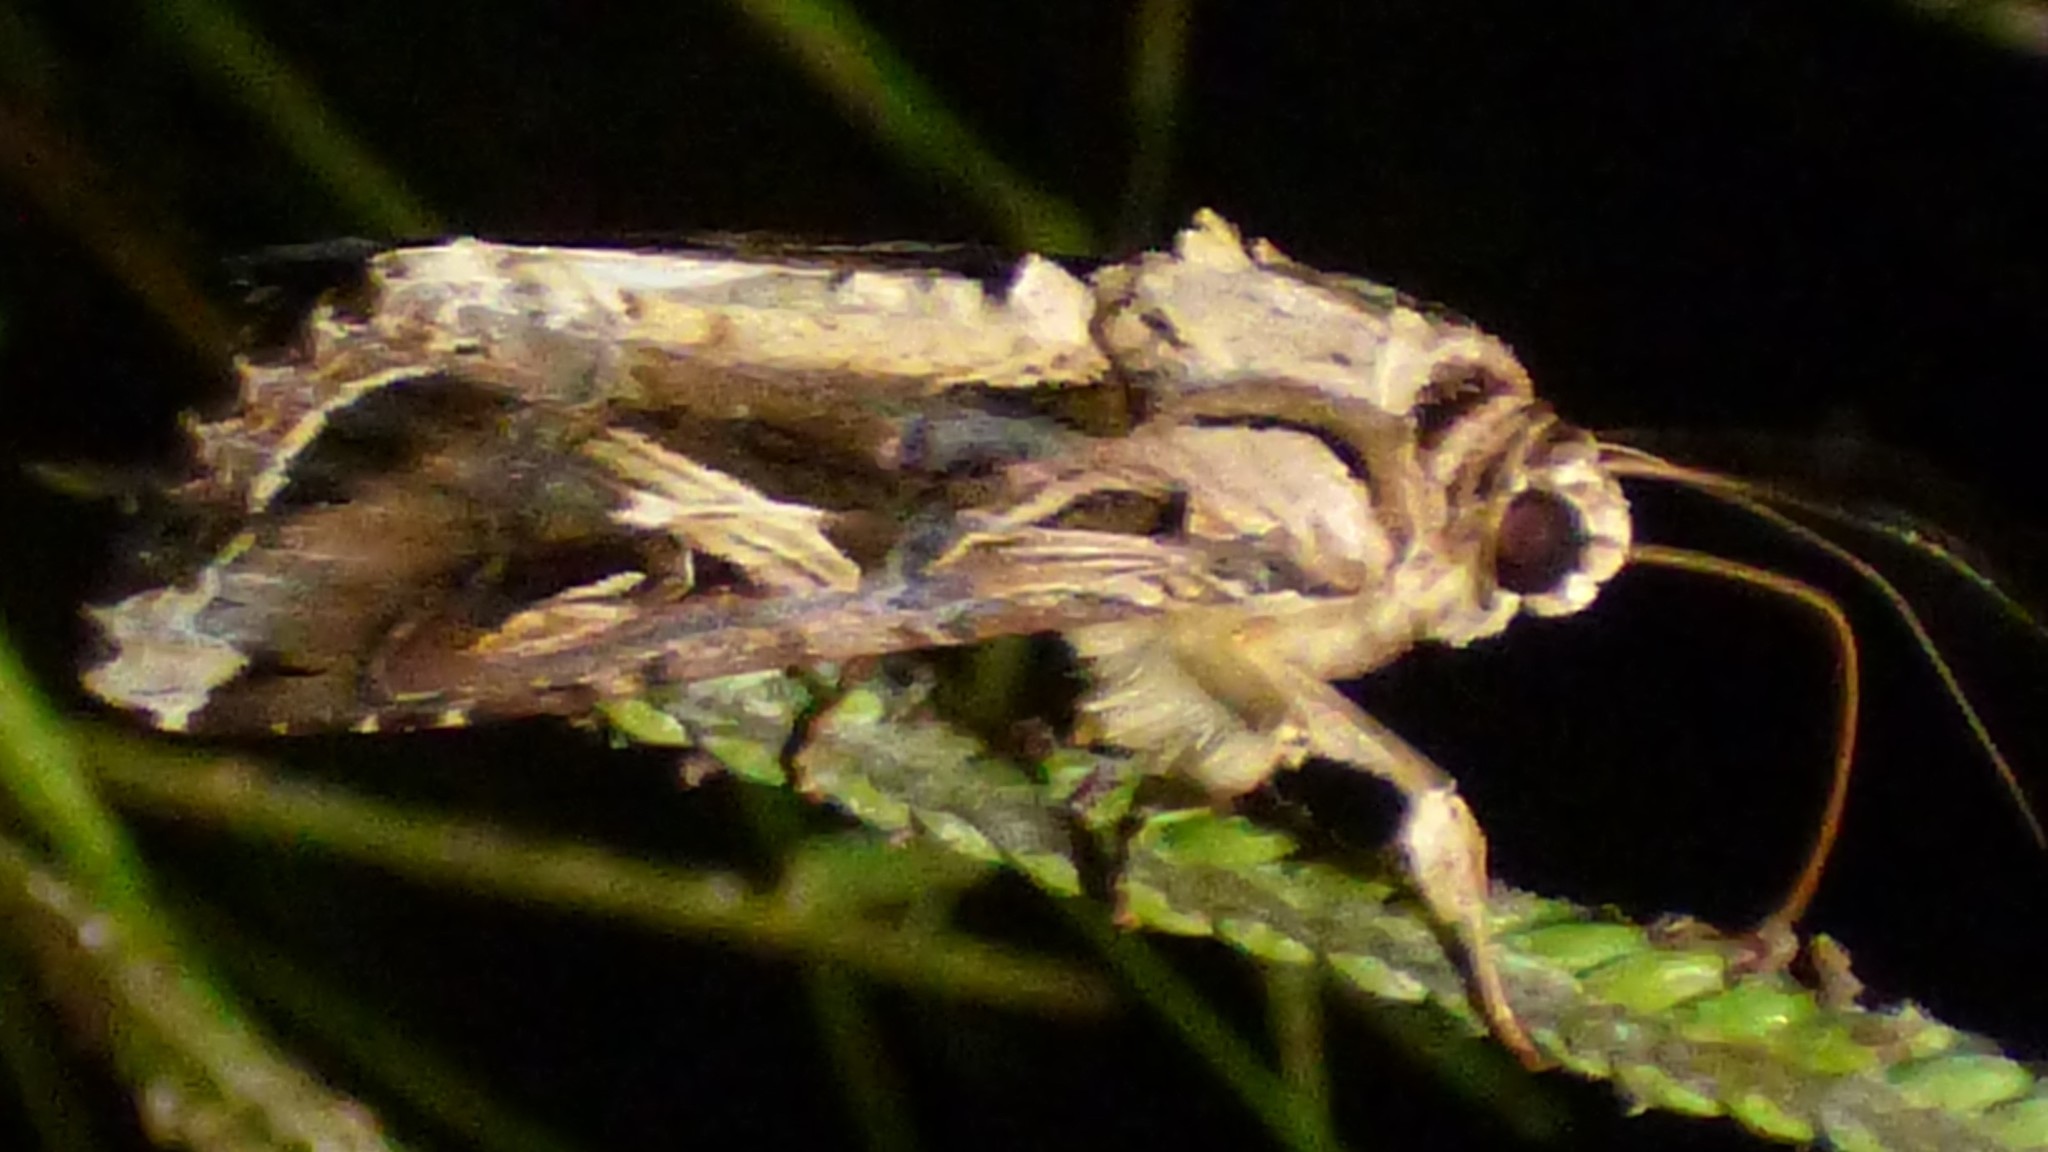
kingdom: Animalia
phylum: Arthropoda
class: Insecta
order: Lepidoptera
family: Noctuidae
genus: Spodoptera
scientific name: Spodoptera dolichos
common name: Sweetpotato armyworm
